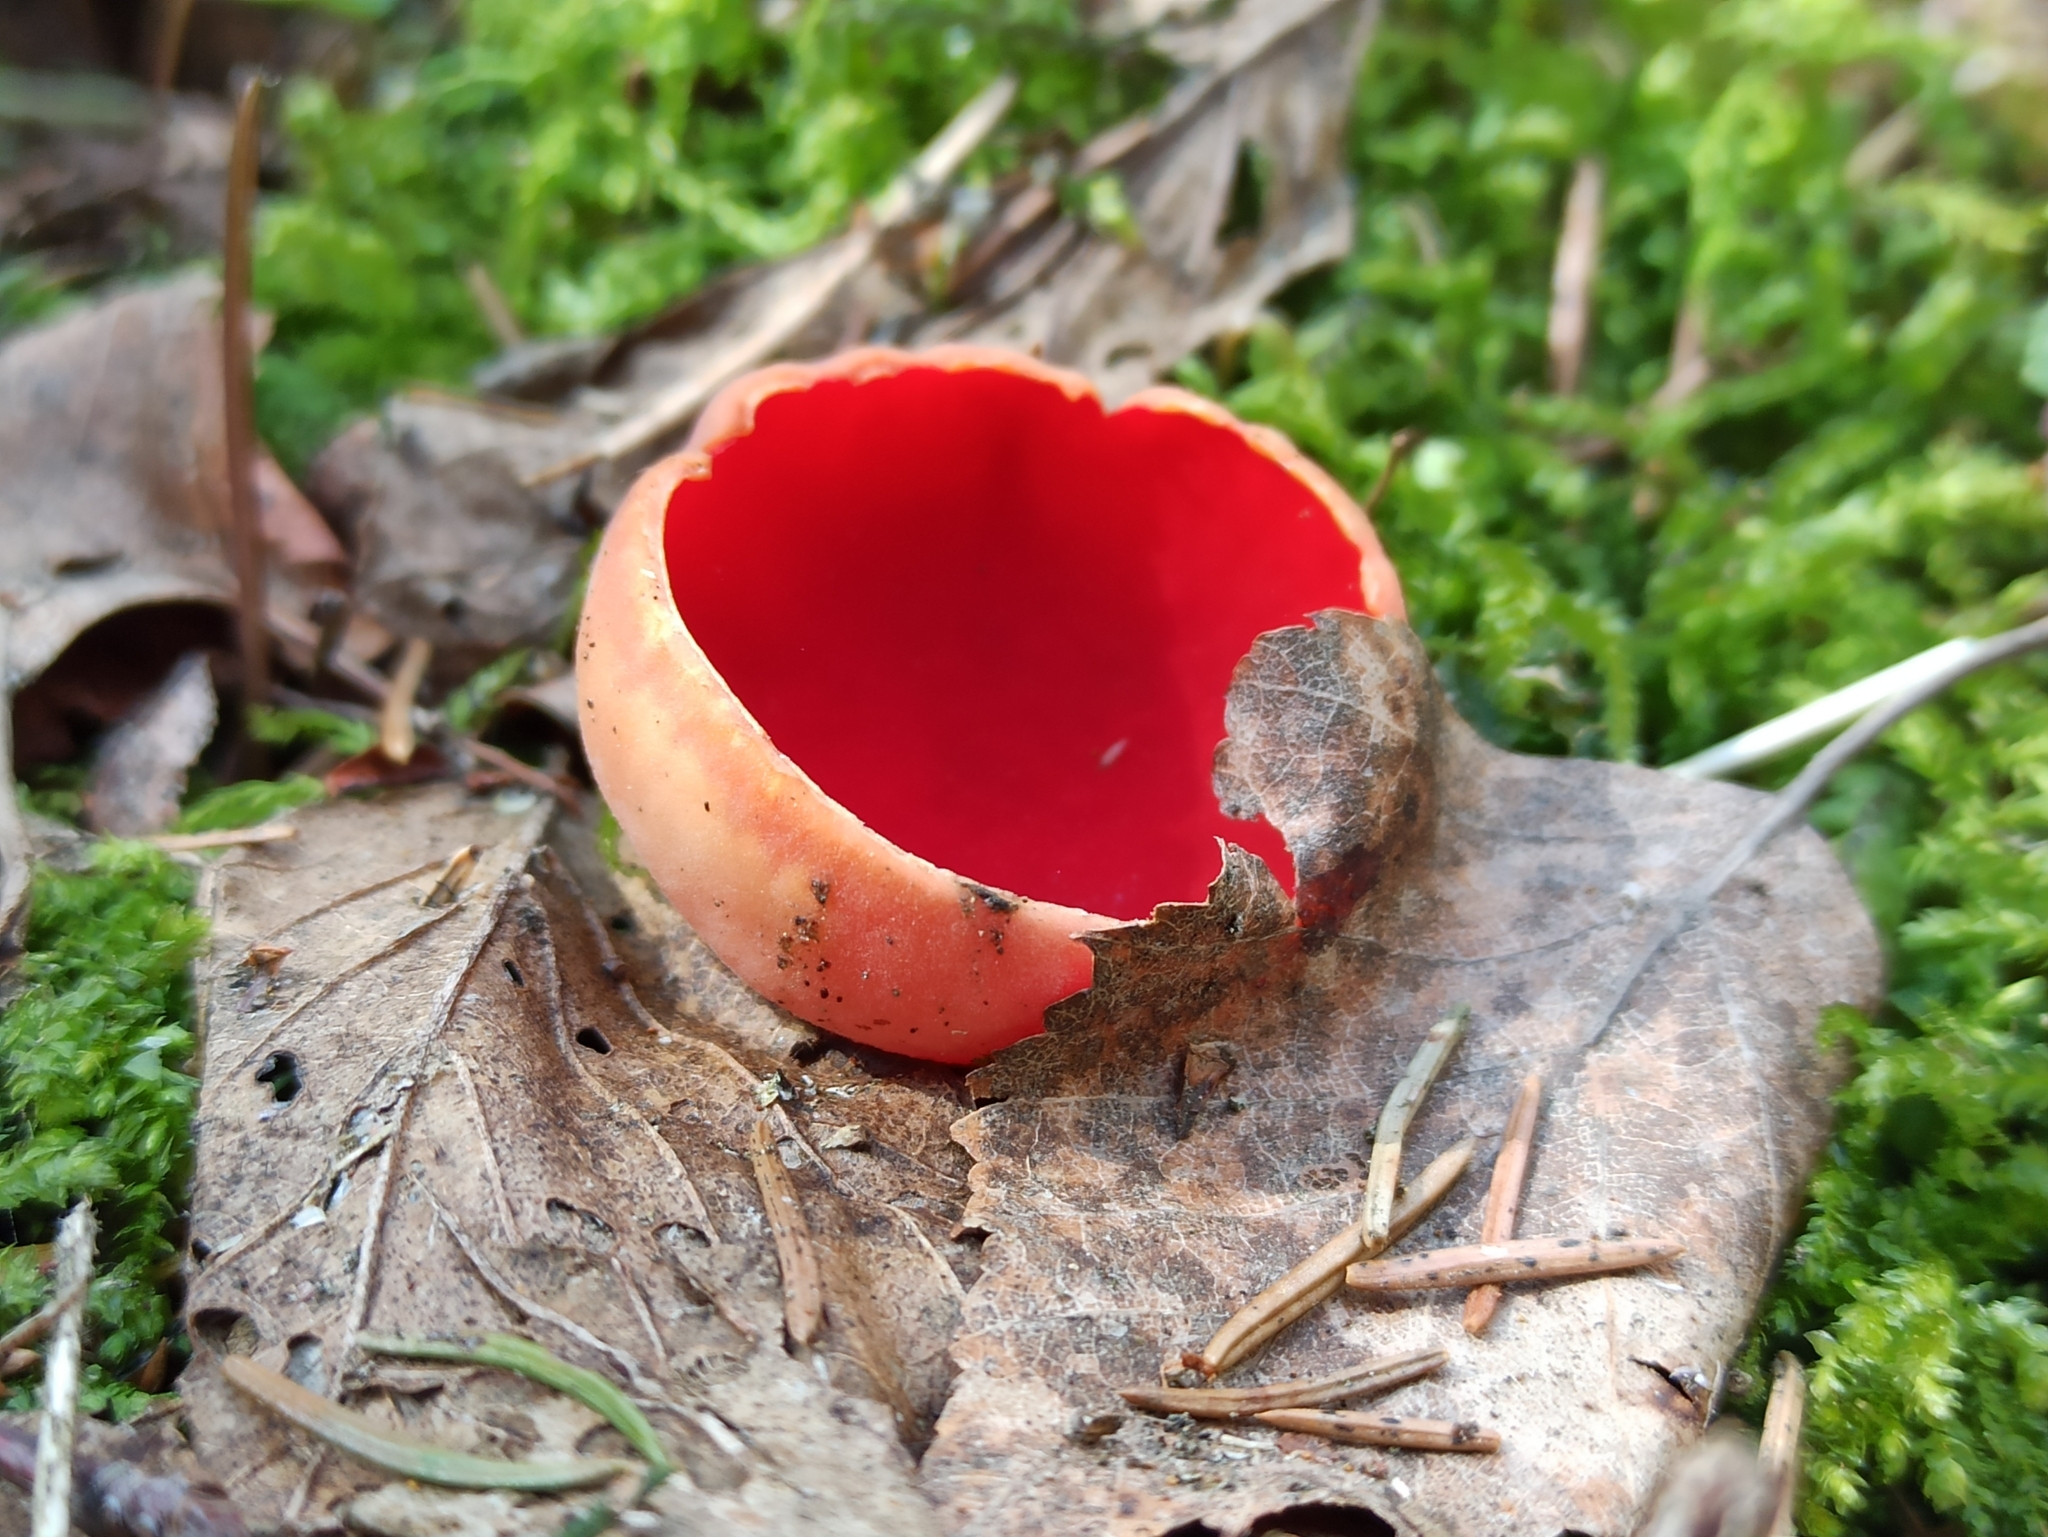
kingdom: Fungi
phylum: Ascomycota
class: Pezizomycetes
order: Pezizales
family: Sarcoscyphaceae
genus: Sarcoscypha
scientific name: Sarcoscypha austriaca
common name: Scarlet elfcup
